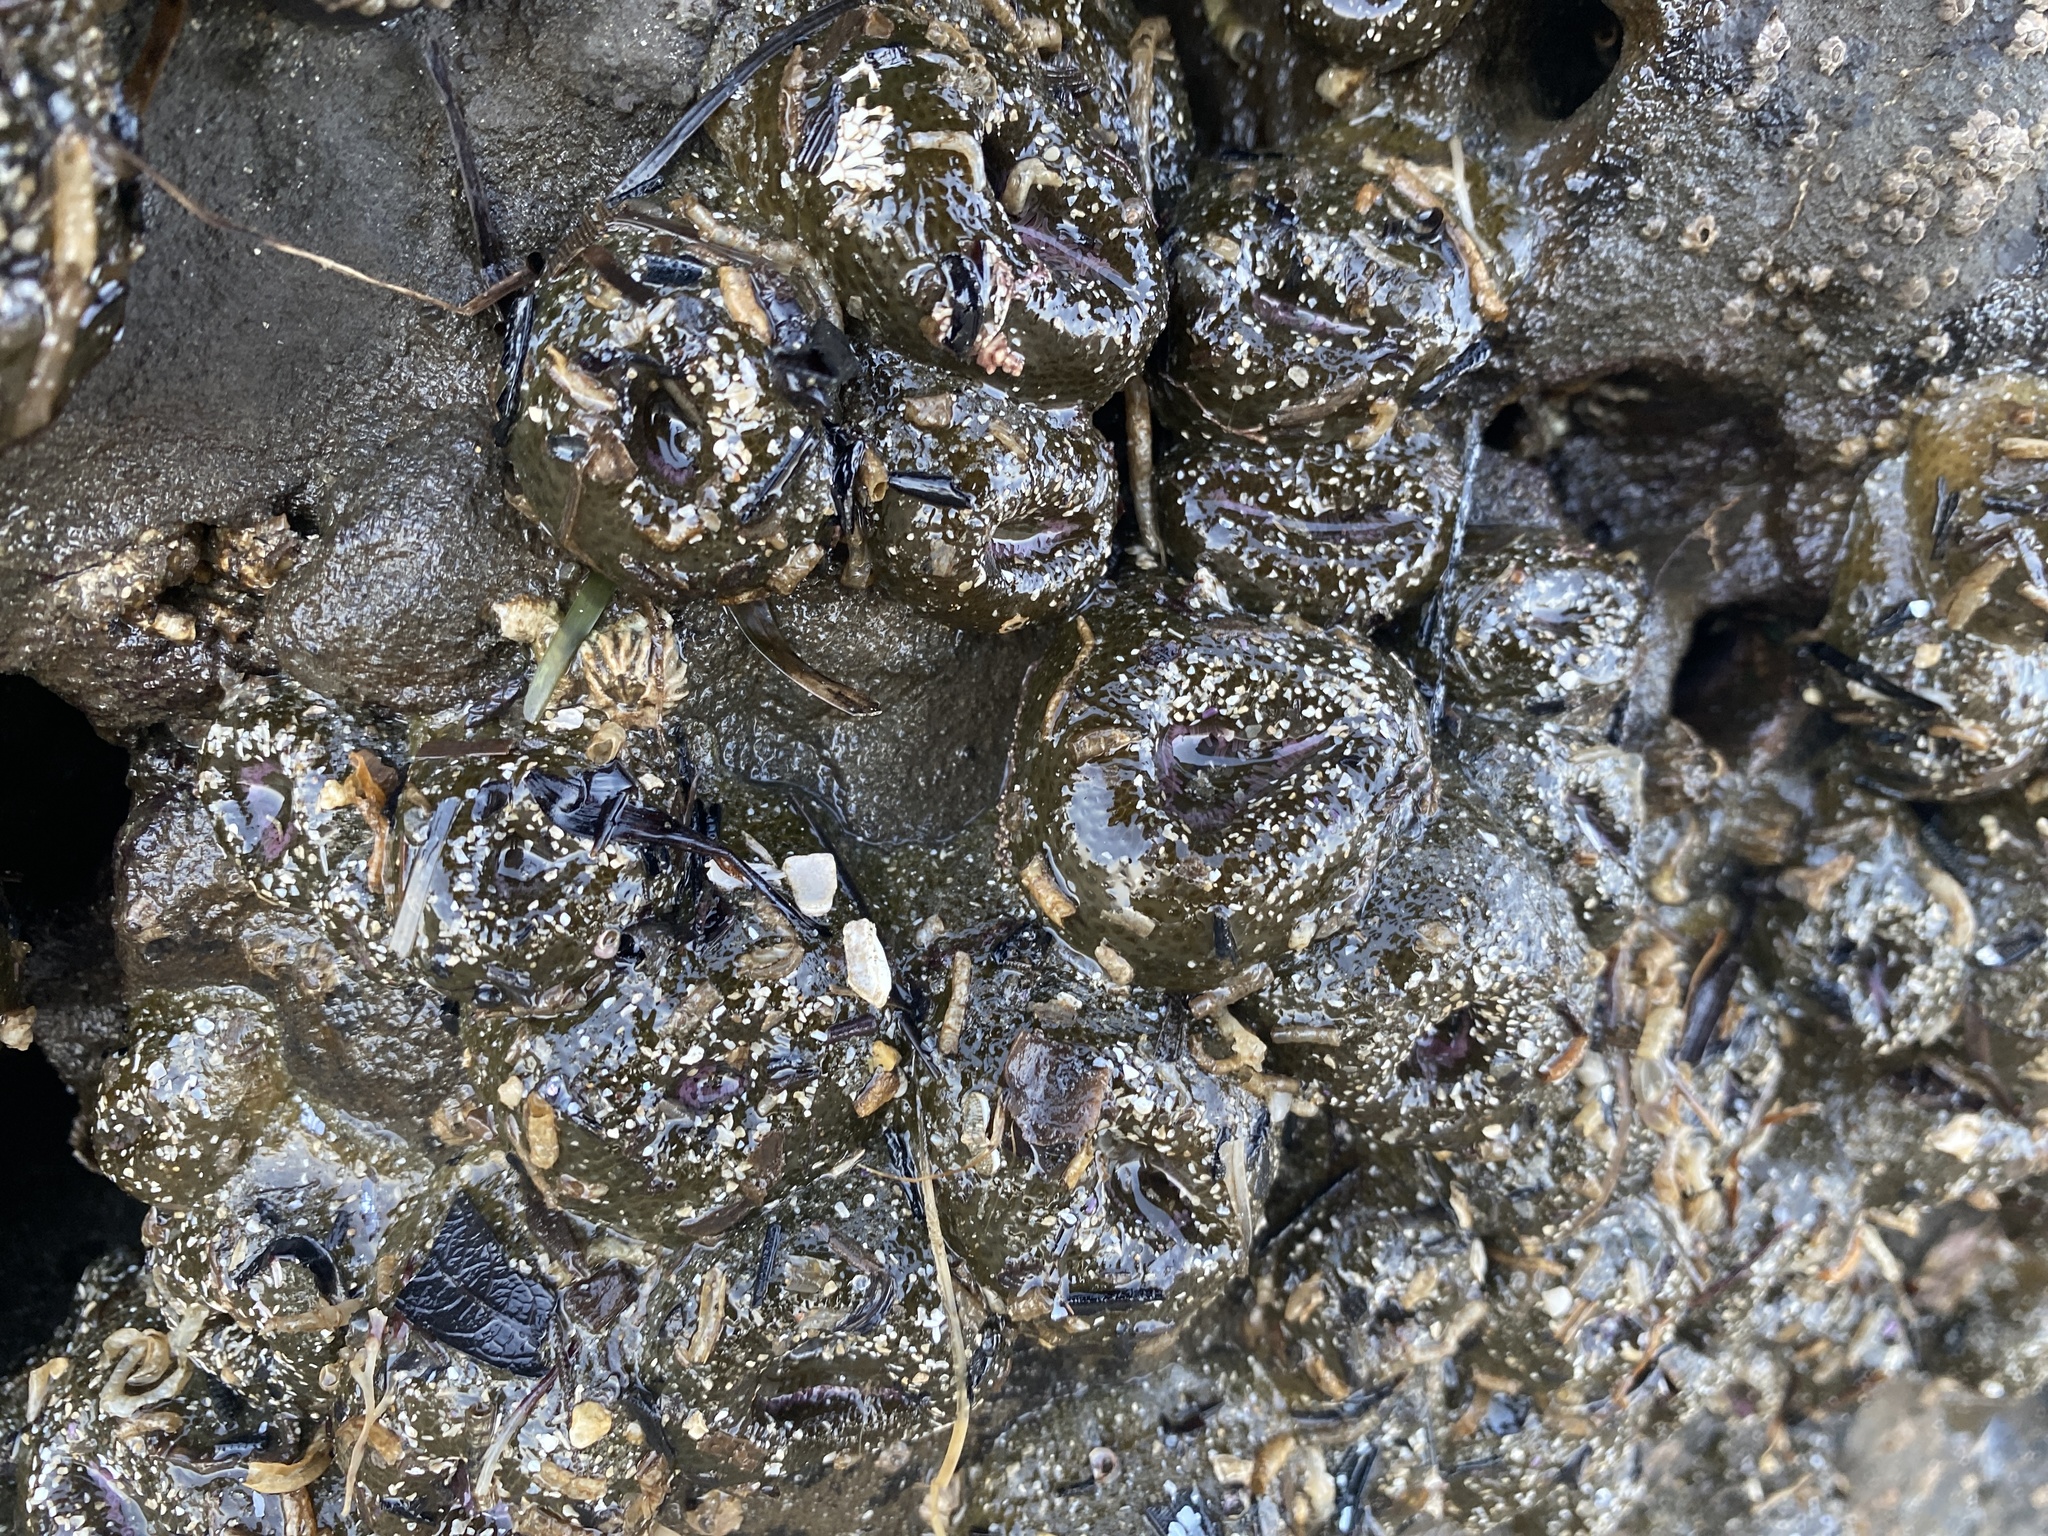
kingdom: Animalia
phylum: Cnidaria
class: Anthozoa
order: Actiniaria
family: Actiniidae
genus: Anthopleura
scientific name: Anthopleura elegantissima
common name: Clonal anemone
